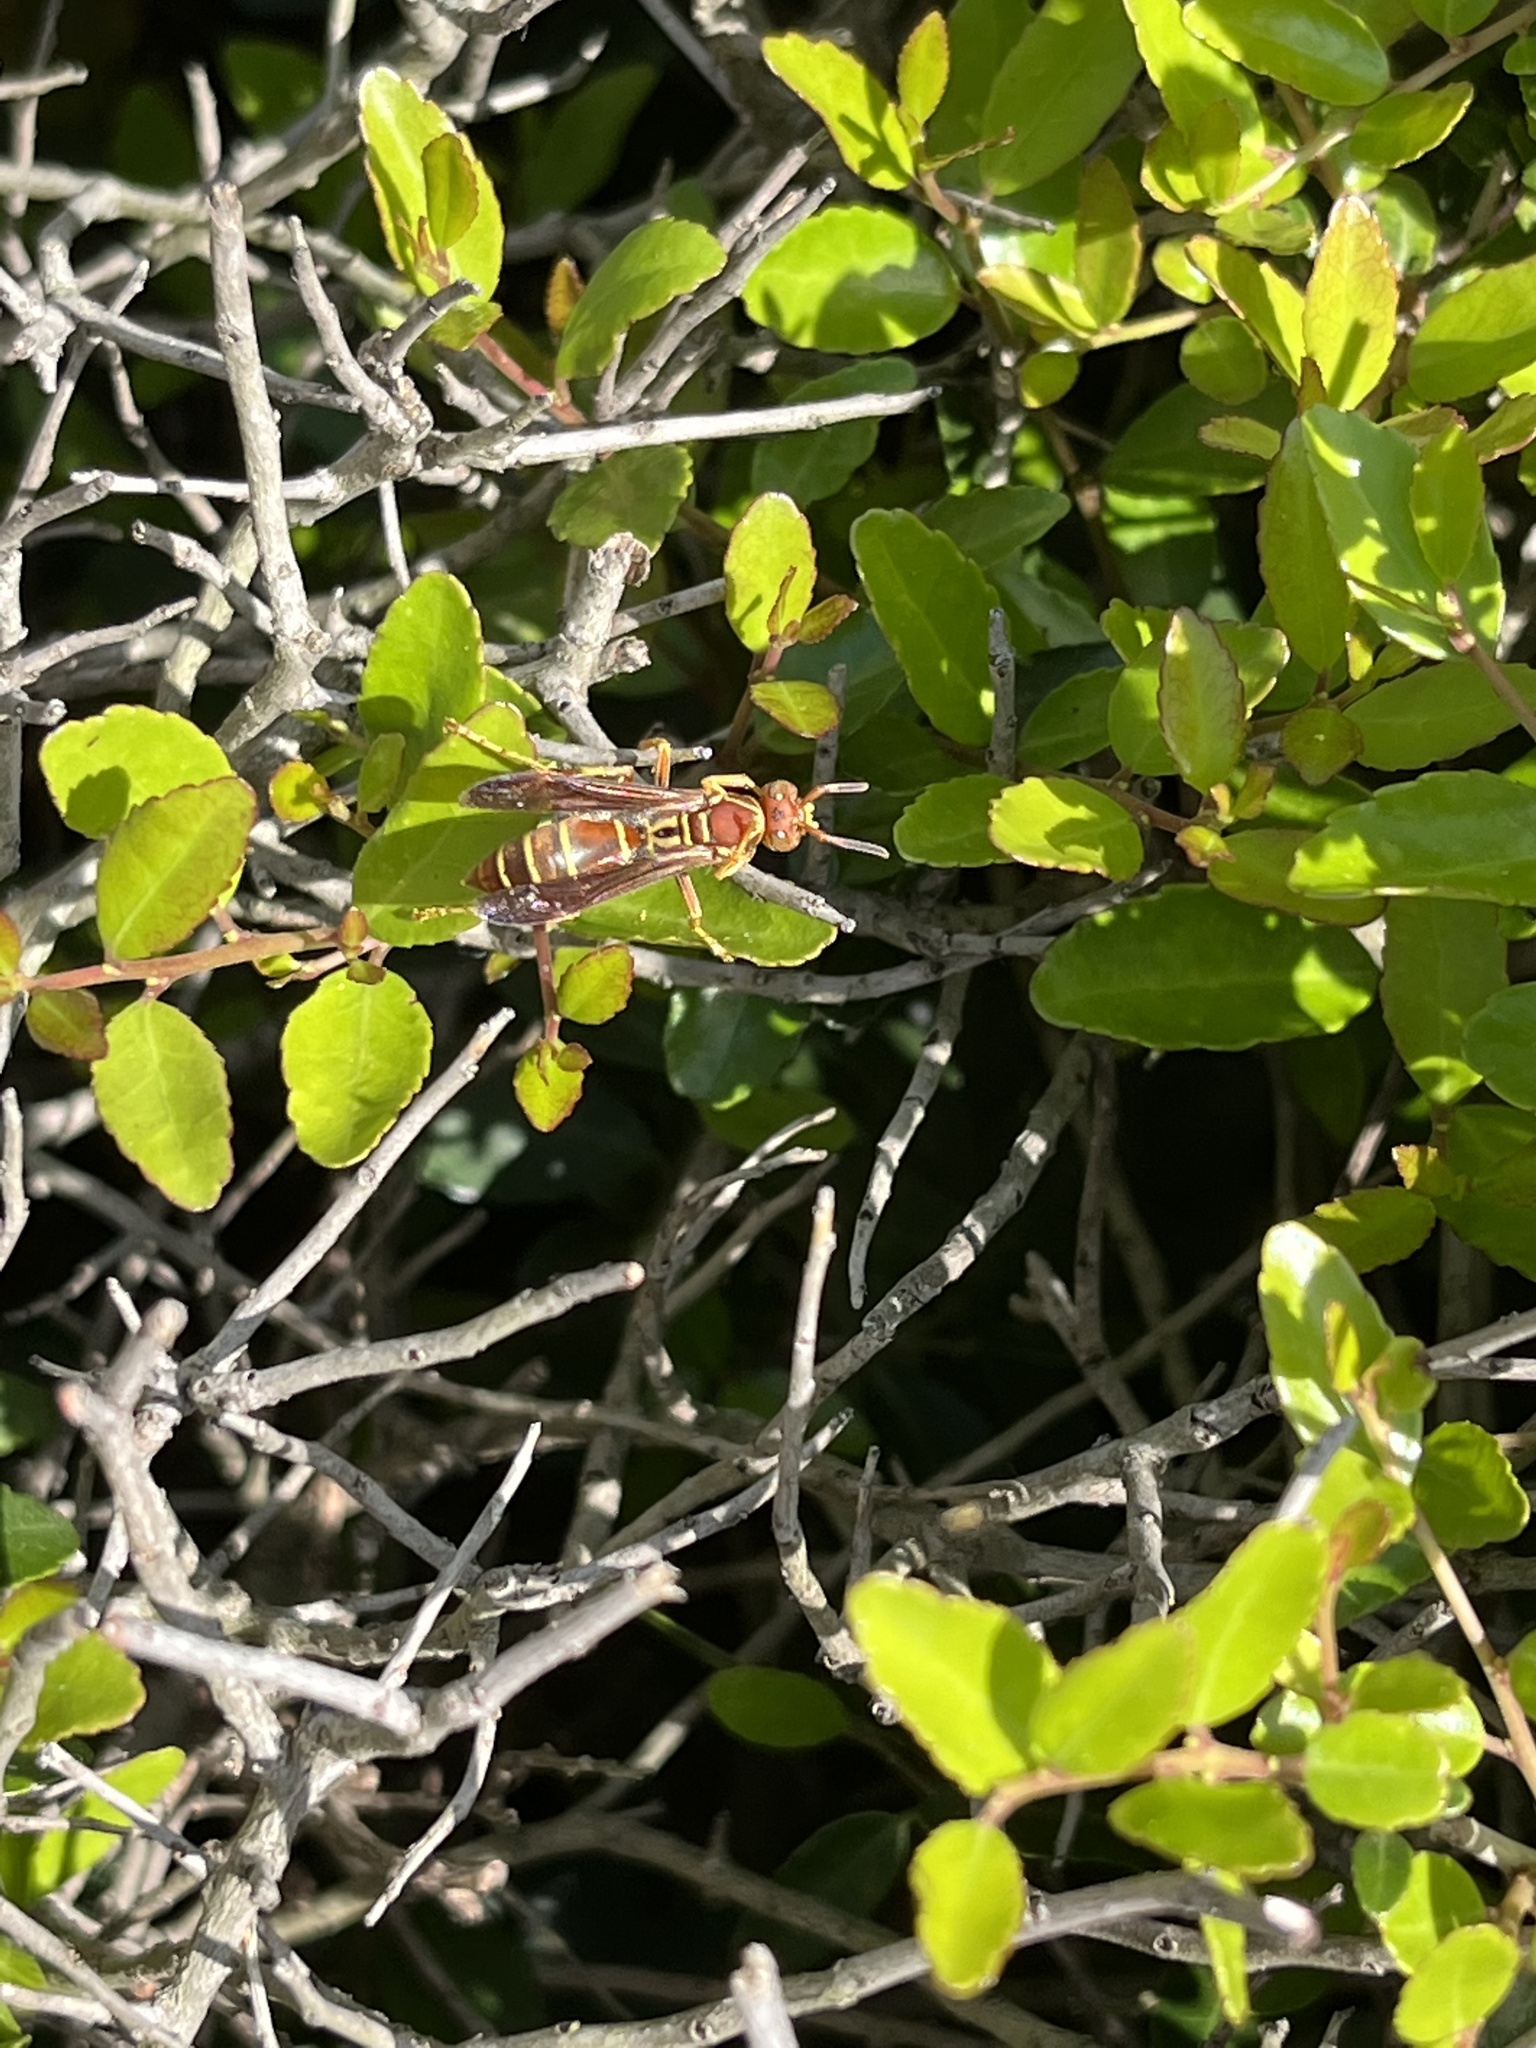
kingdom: Animalia
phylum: Arthropoda
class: Insecta
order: Hymenoptera
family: Eumenidae
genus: Polistes
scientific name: Polistes dorsalis
